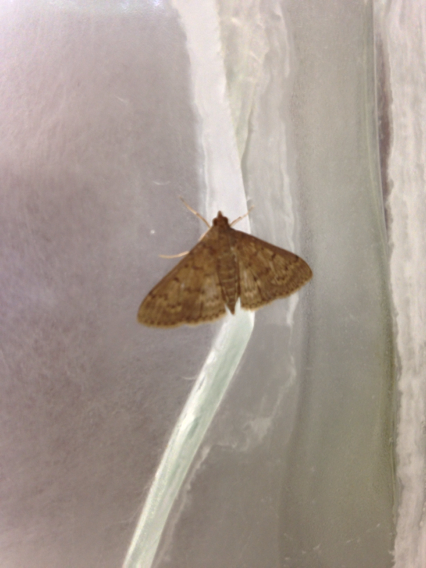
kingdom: Animalia
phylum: Arthropoda
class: Insecta
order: Lepidoptera
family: Crambidae
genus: Herpetogramma
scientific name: Herpetogramma licarsisalis
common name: Grass webworm
